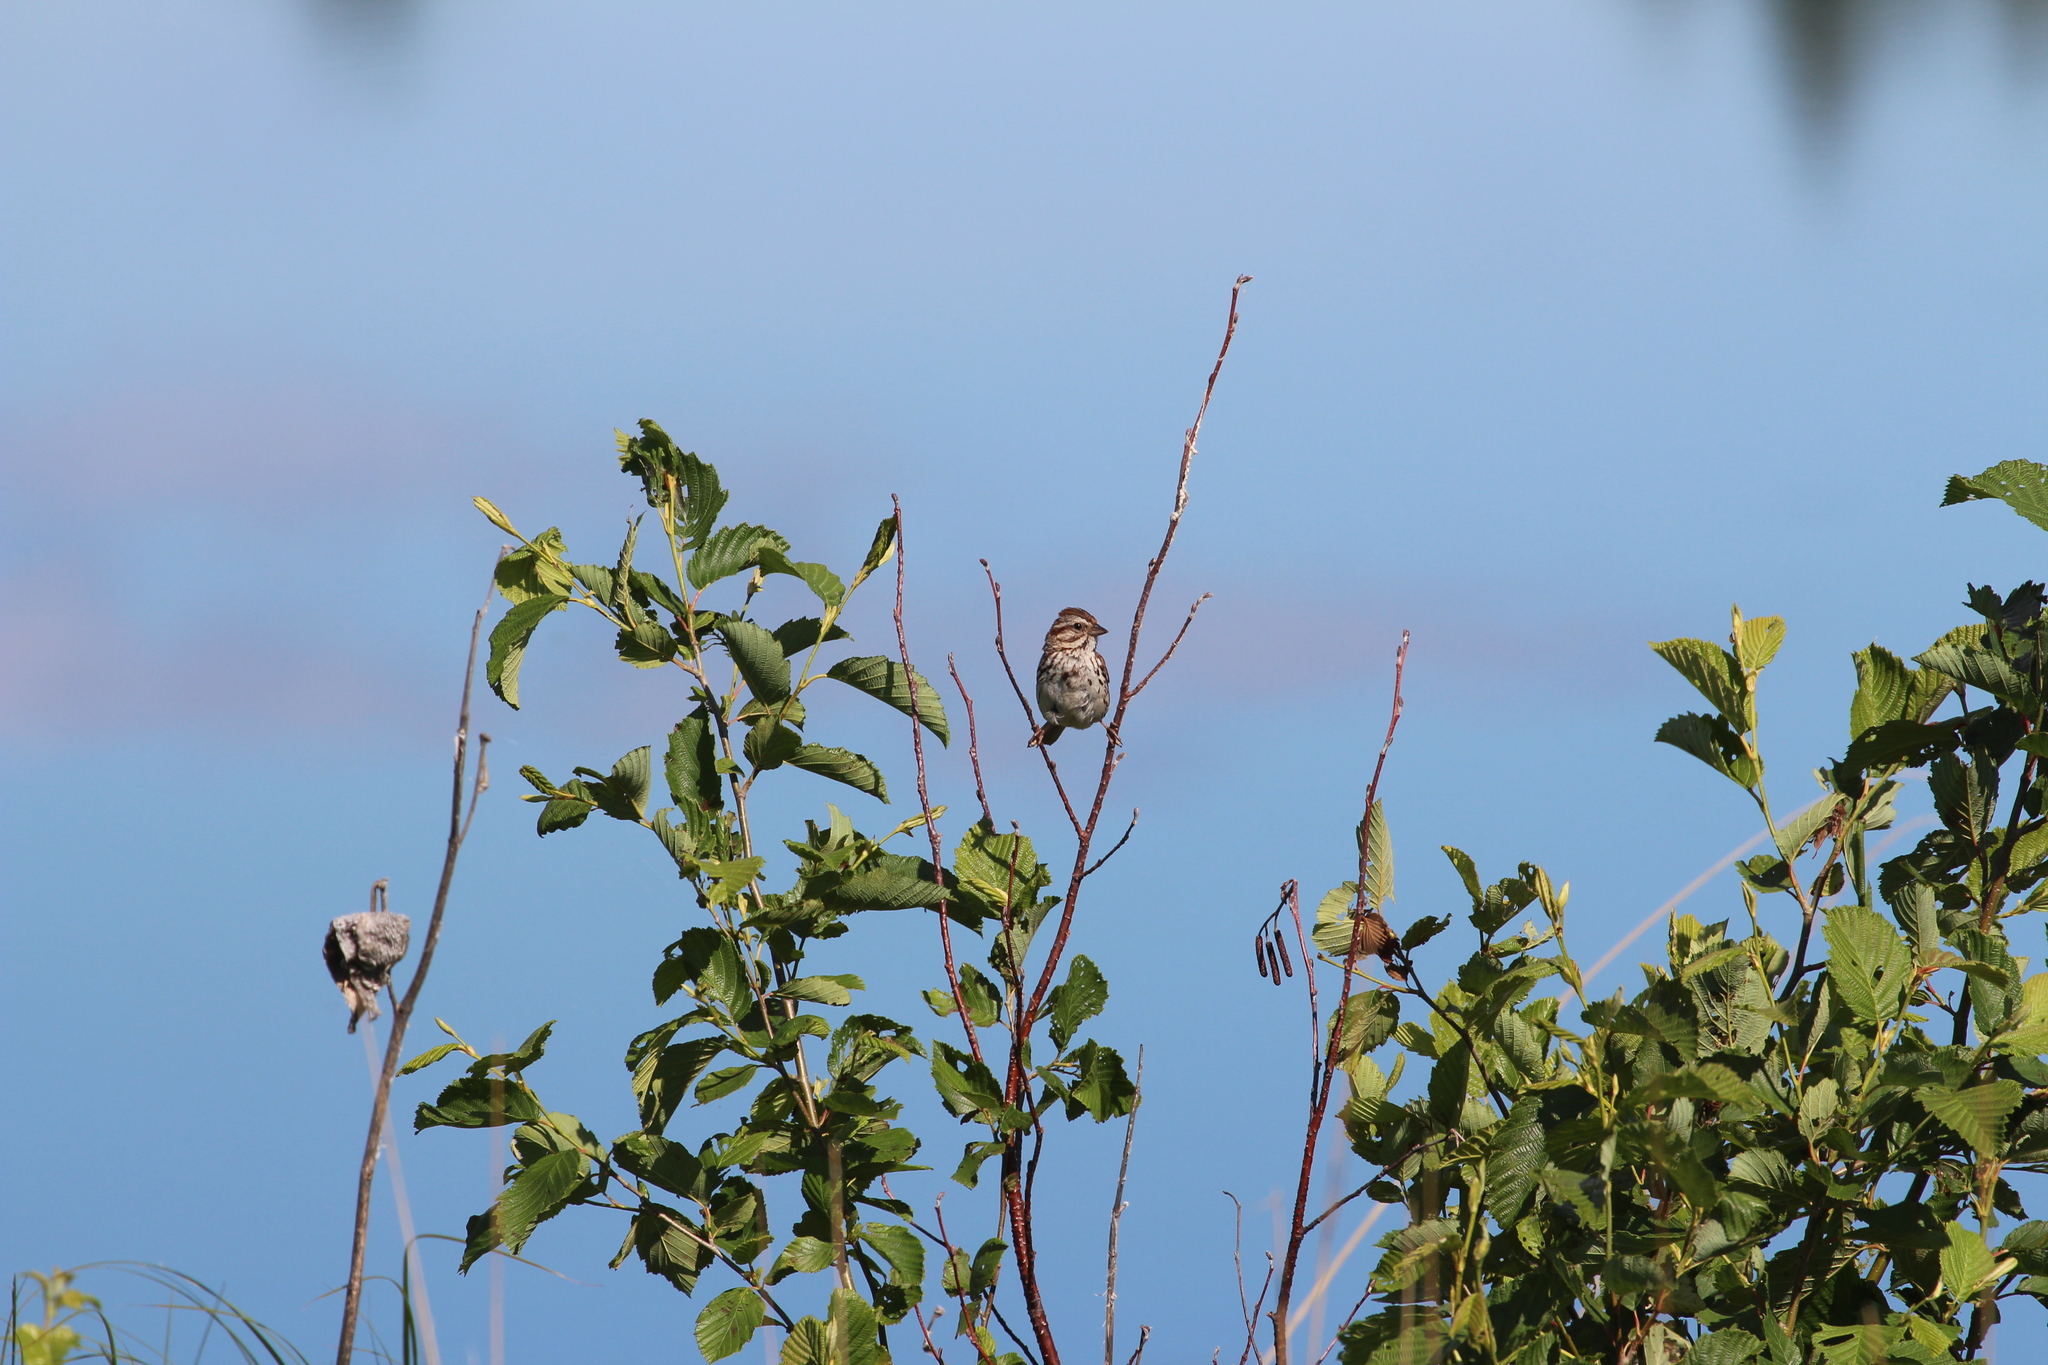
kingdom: Animalia
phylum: Chordata
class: Aves
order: Passeriformes
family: Passerellidae
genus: Melospiza
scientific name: Melospiza melodia
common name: Song sparrow
